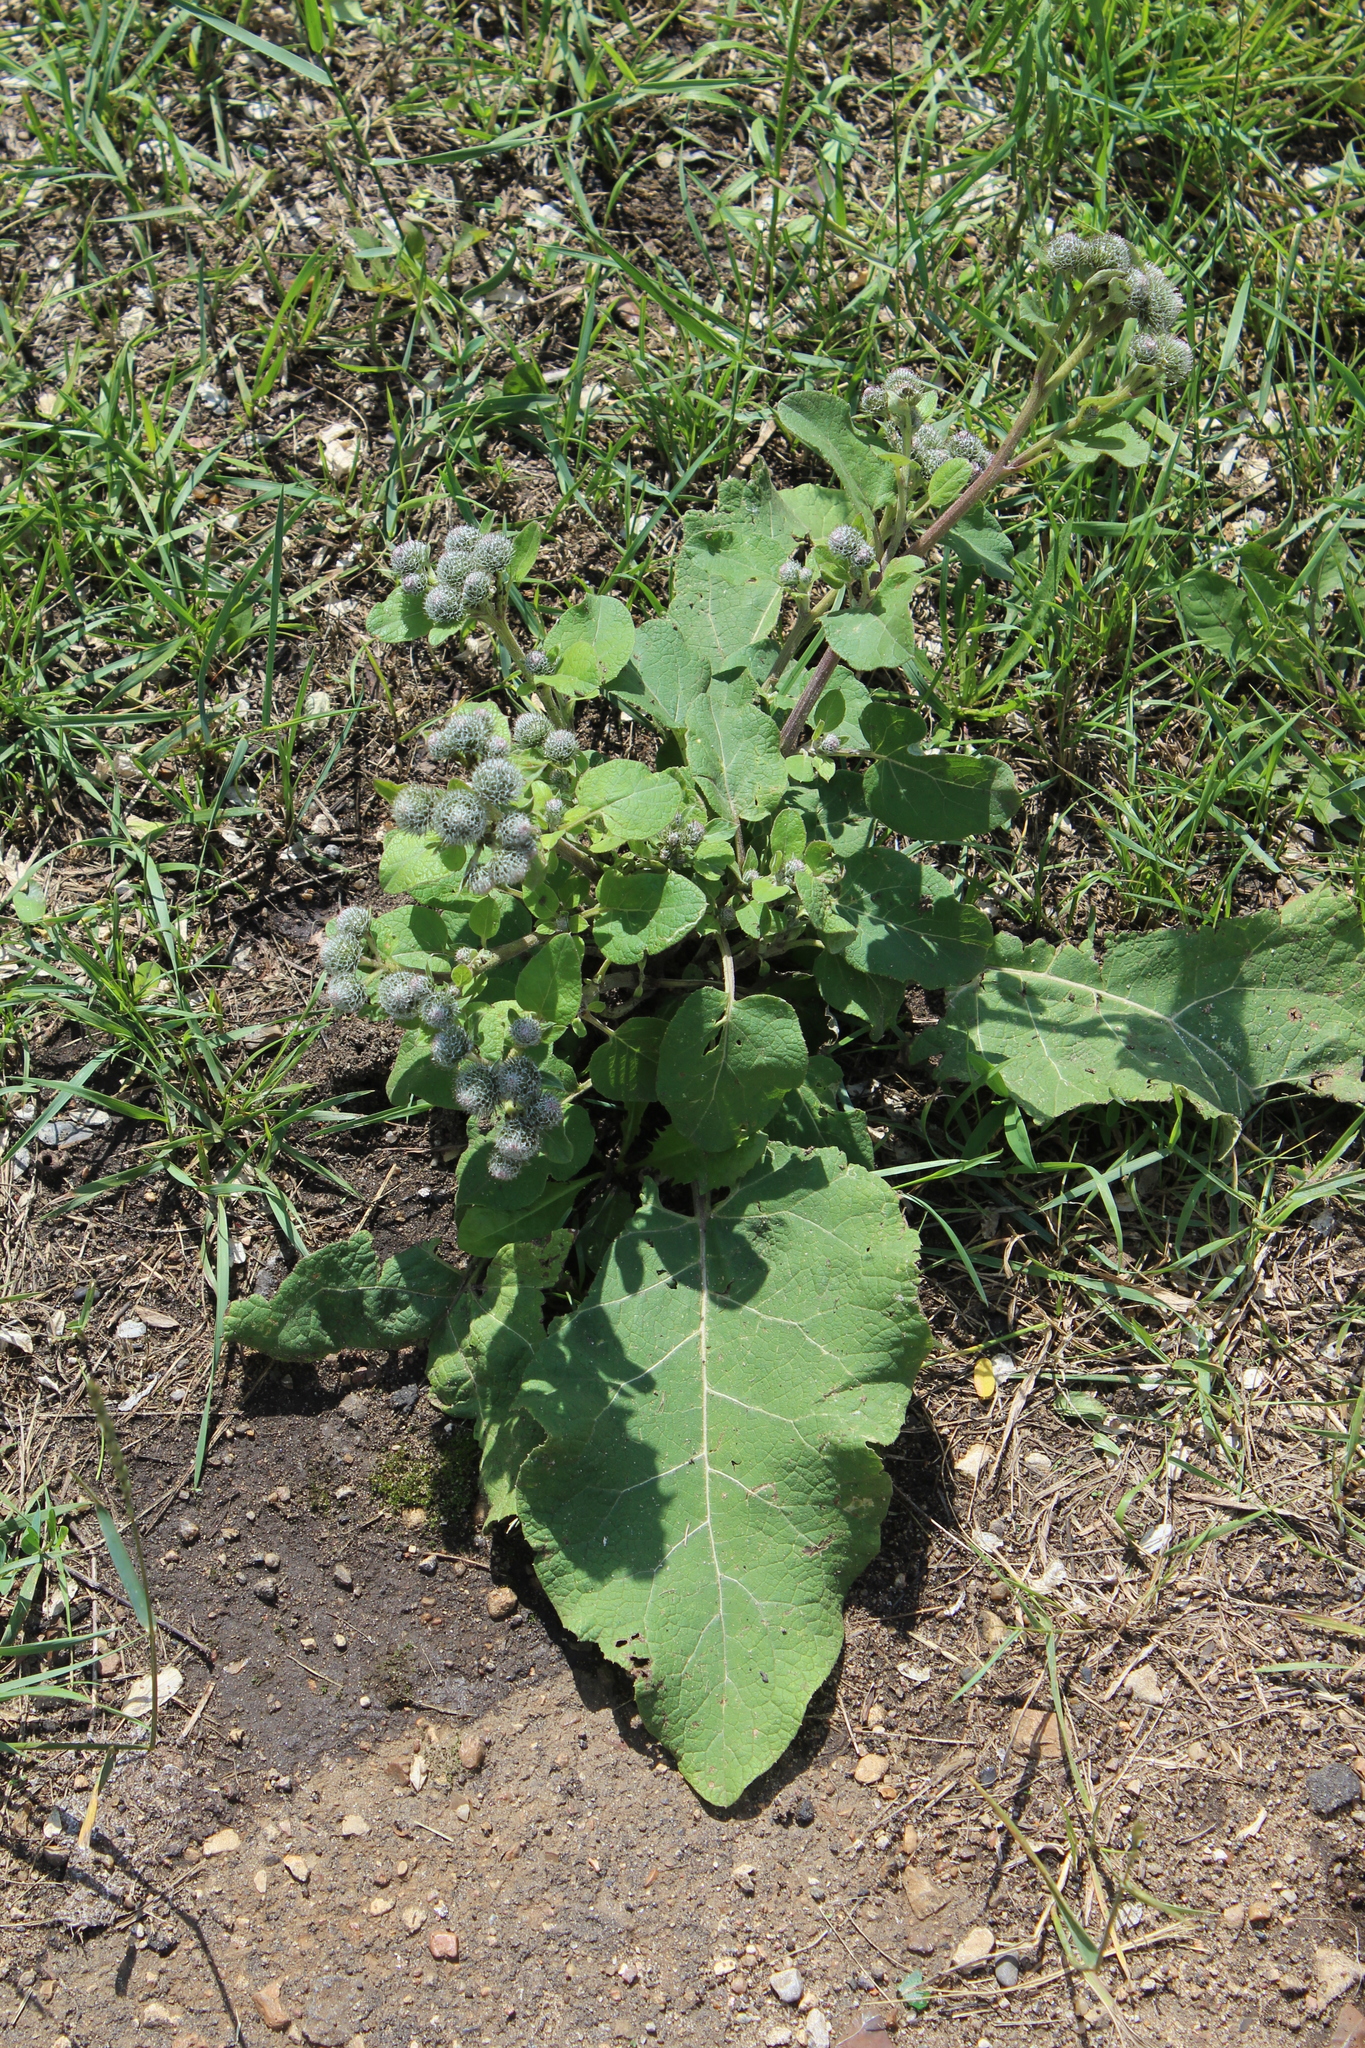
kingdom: Plantae
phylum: Tracheophyta
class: Magnoliopsida
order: Asterales
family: Asteraceae
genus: Arctium
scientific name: Arctium tomentosum
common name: Woolly burdock
